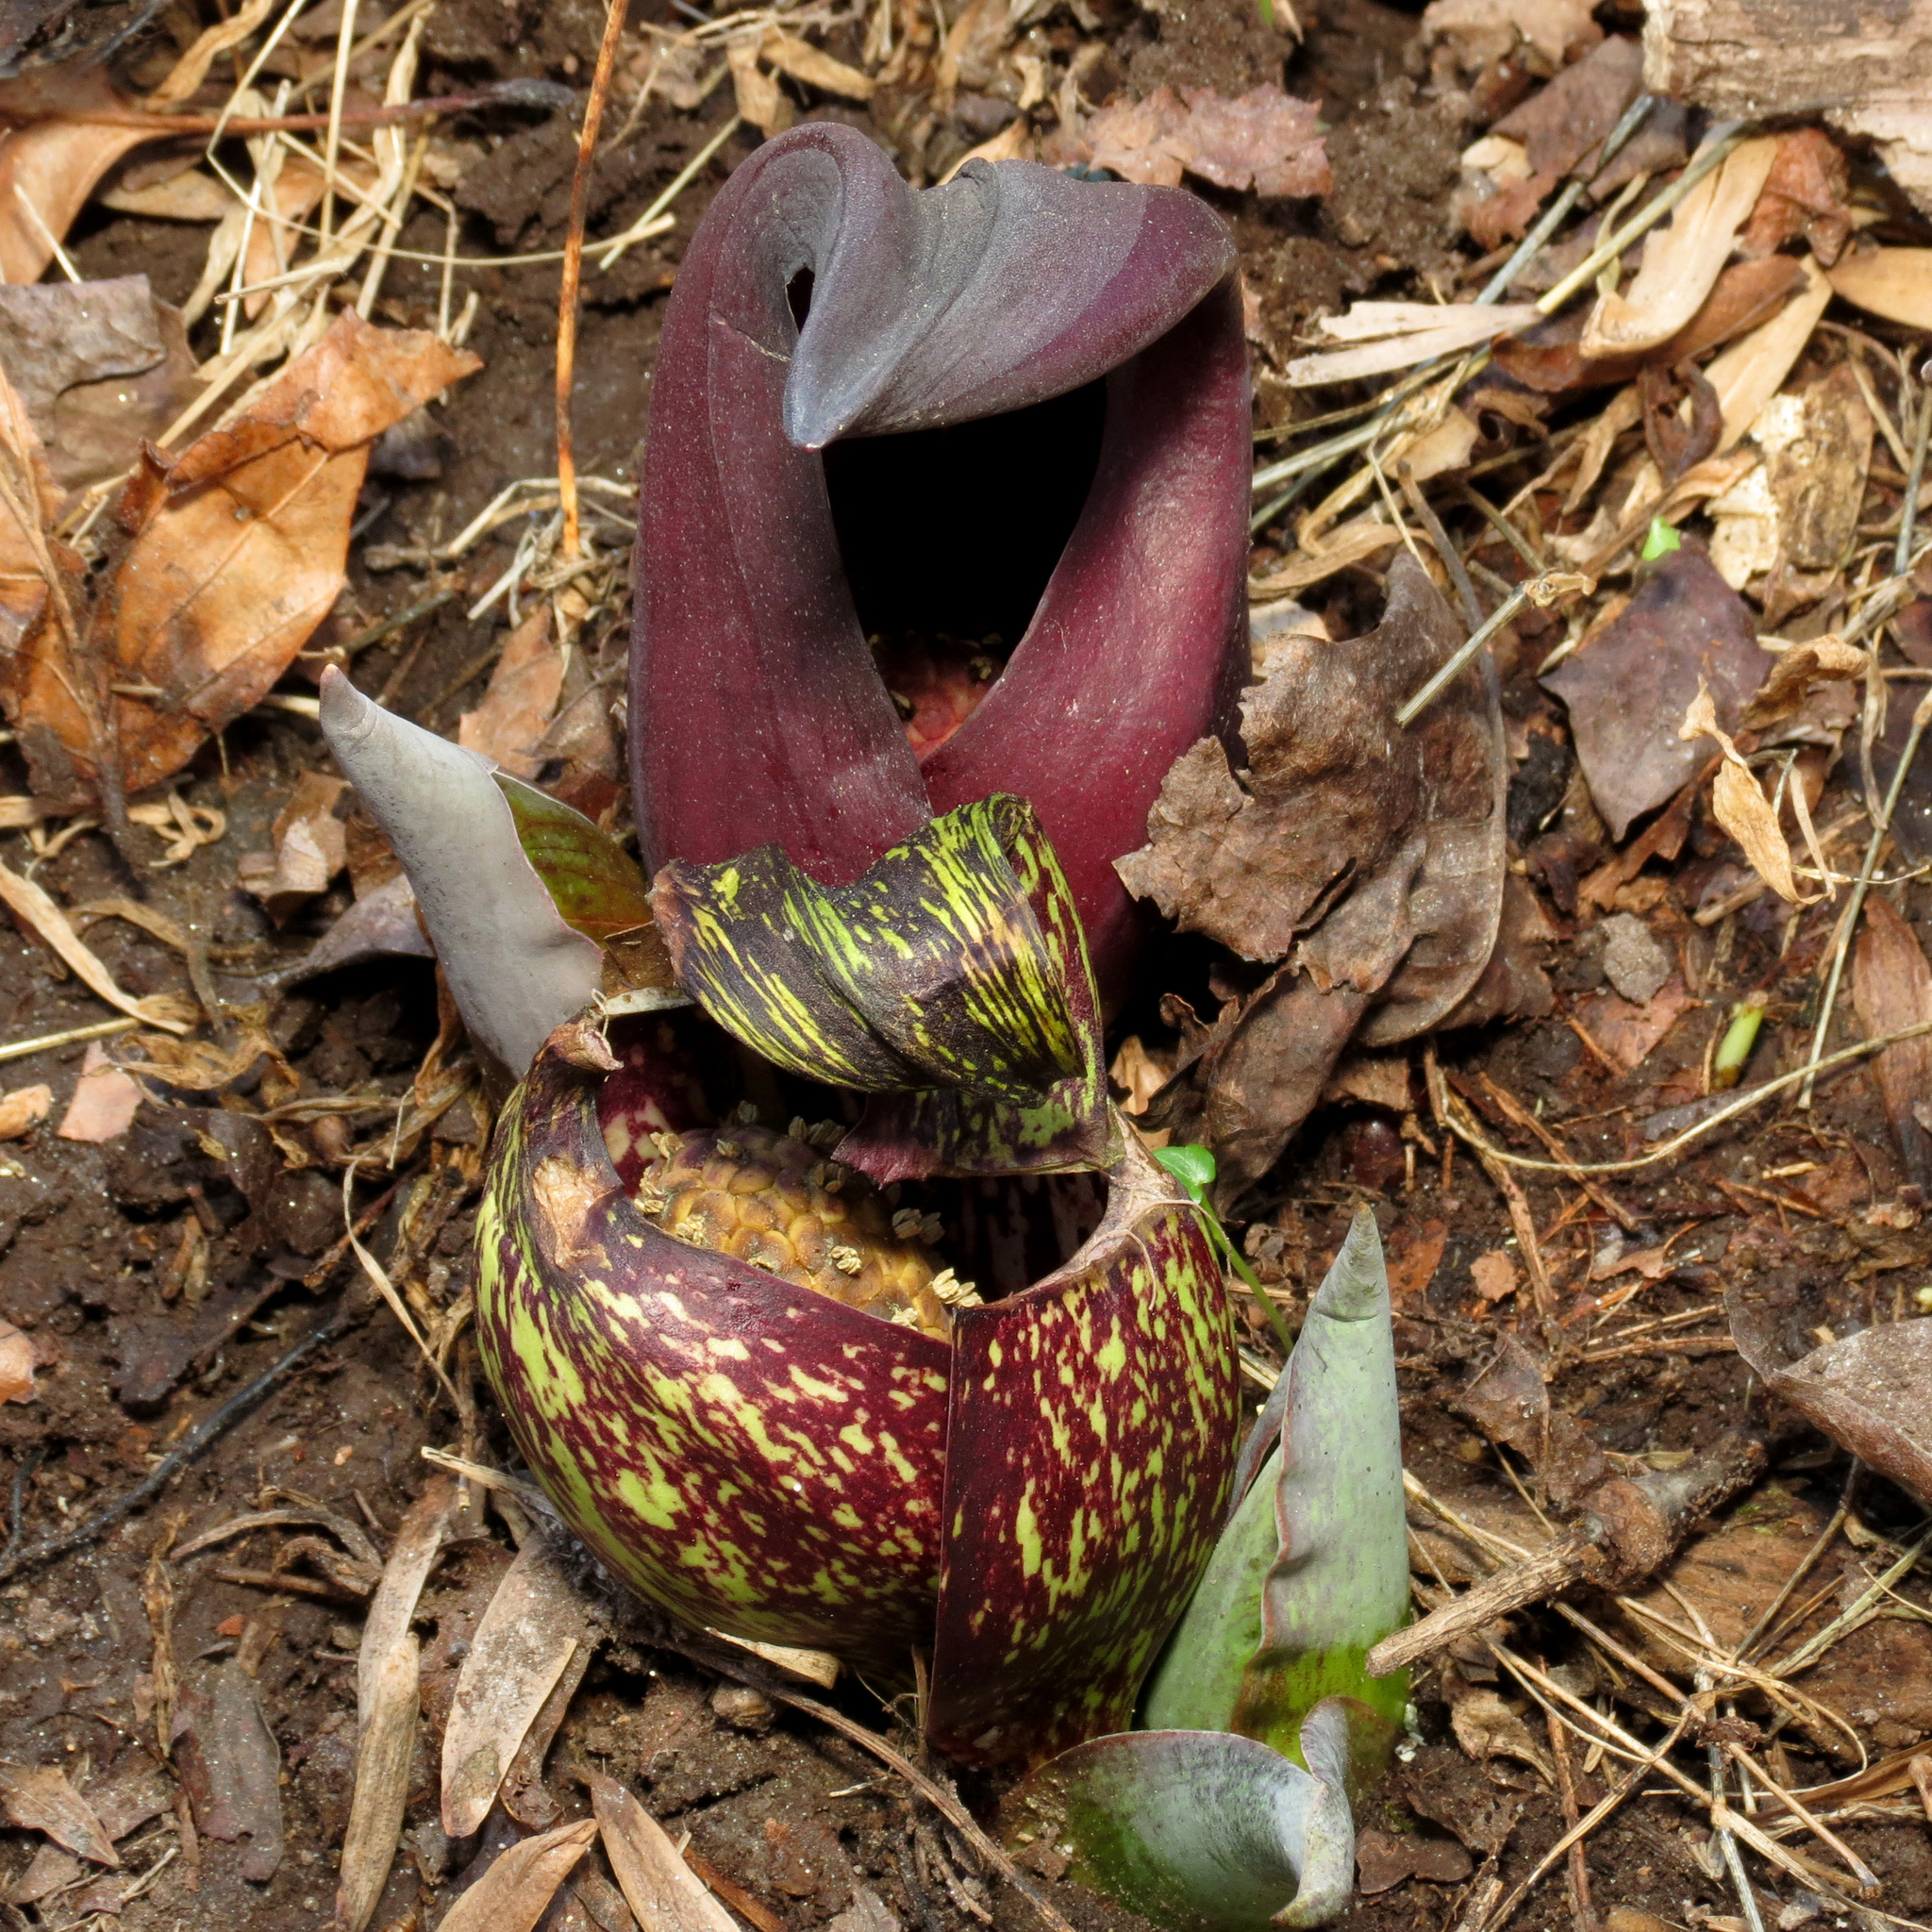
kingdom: Plantae
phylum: Tracheophyta
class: Liliopsida
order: Alismatales
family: Araceae
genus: Symplocarpus
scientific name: Symplocarpus foetidus
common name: Eastern skunk cabbage
